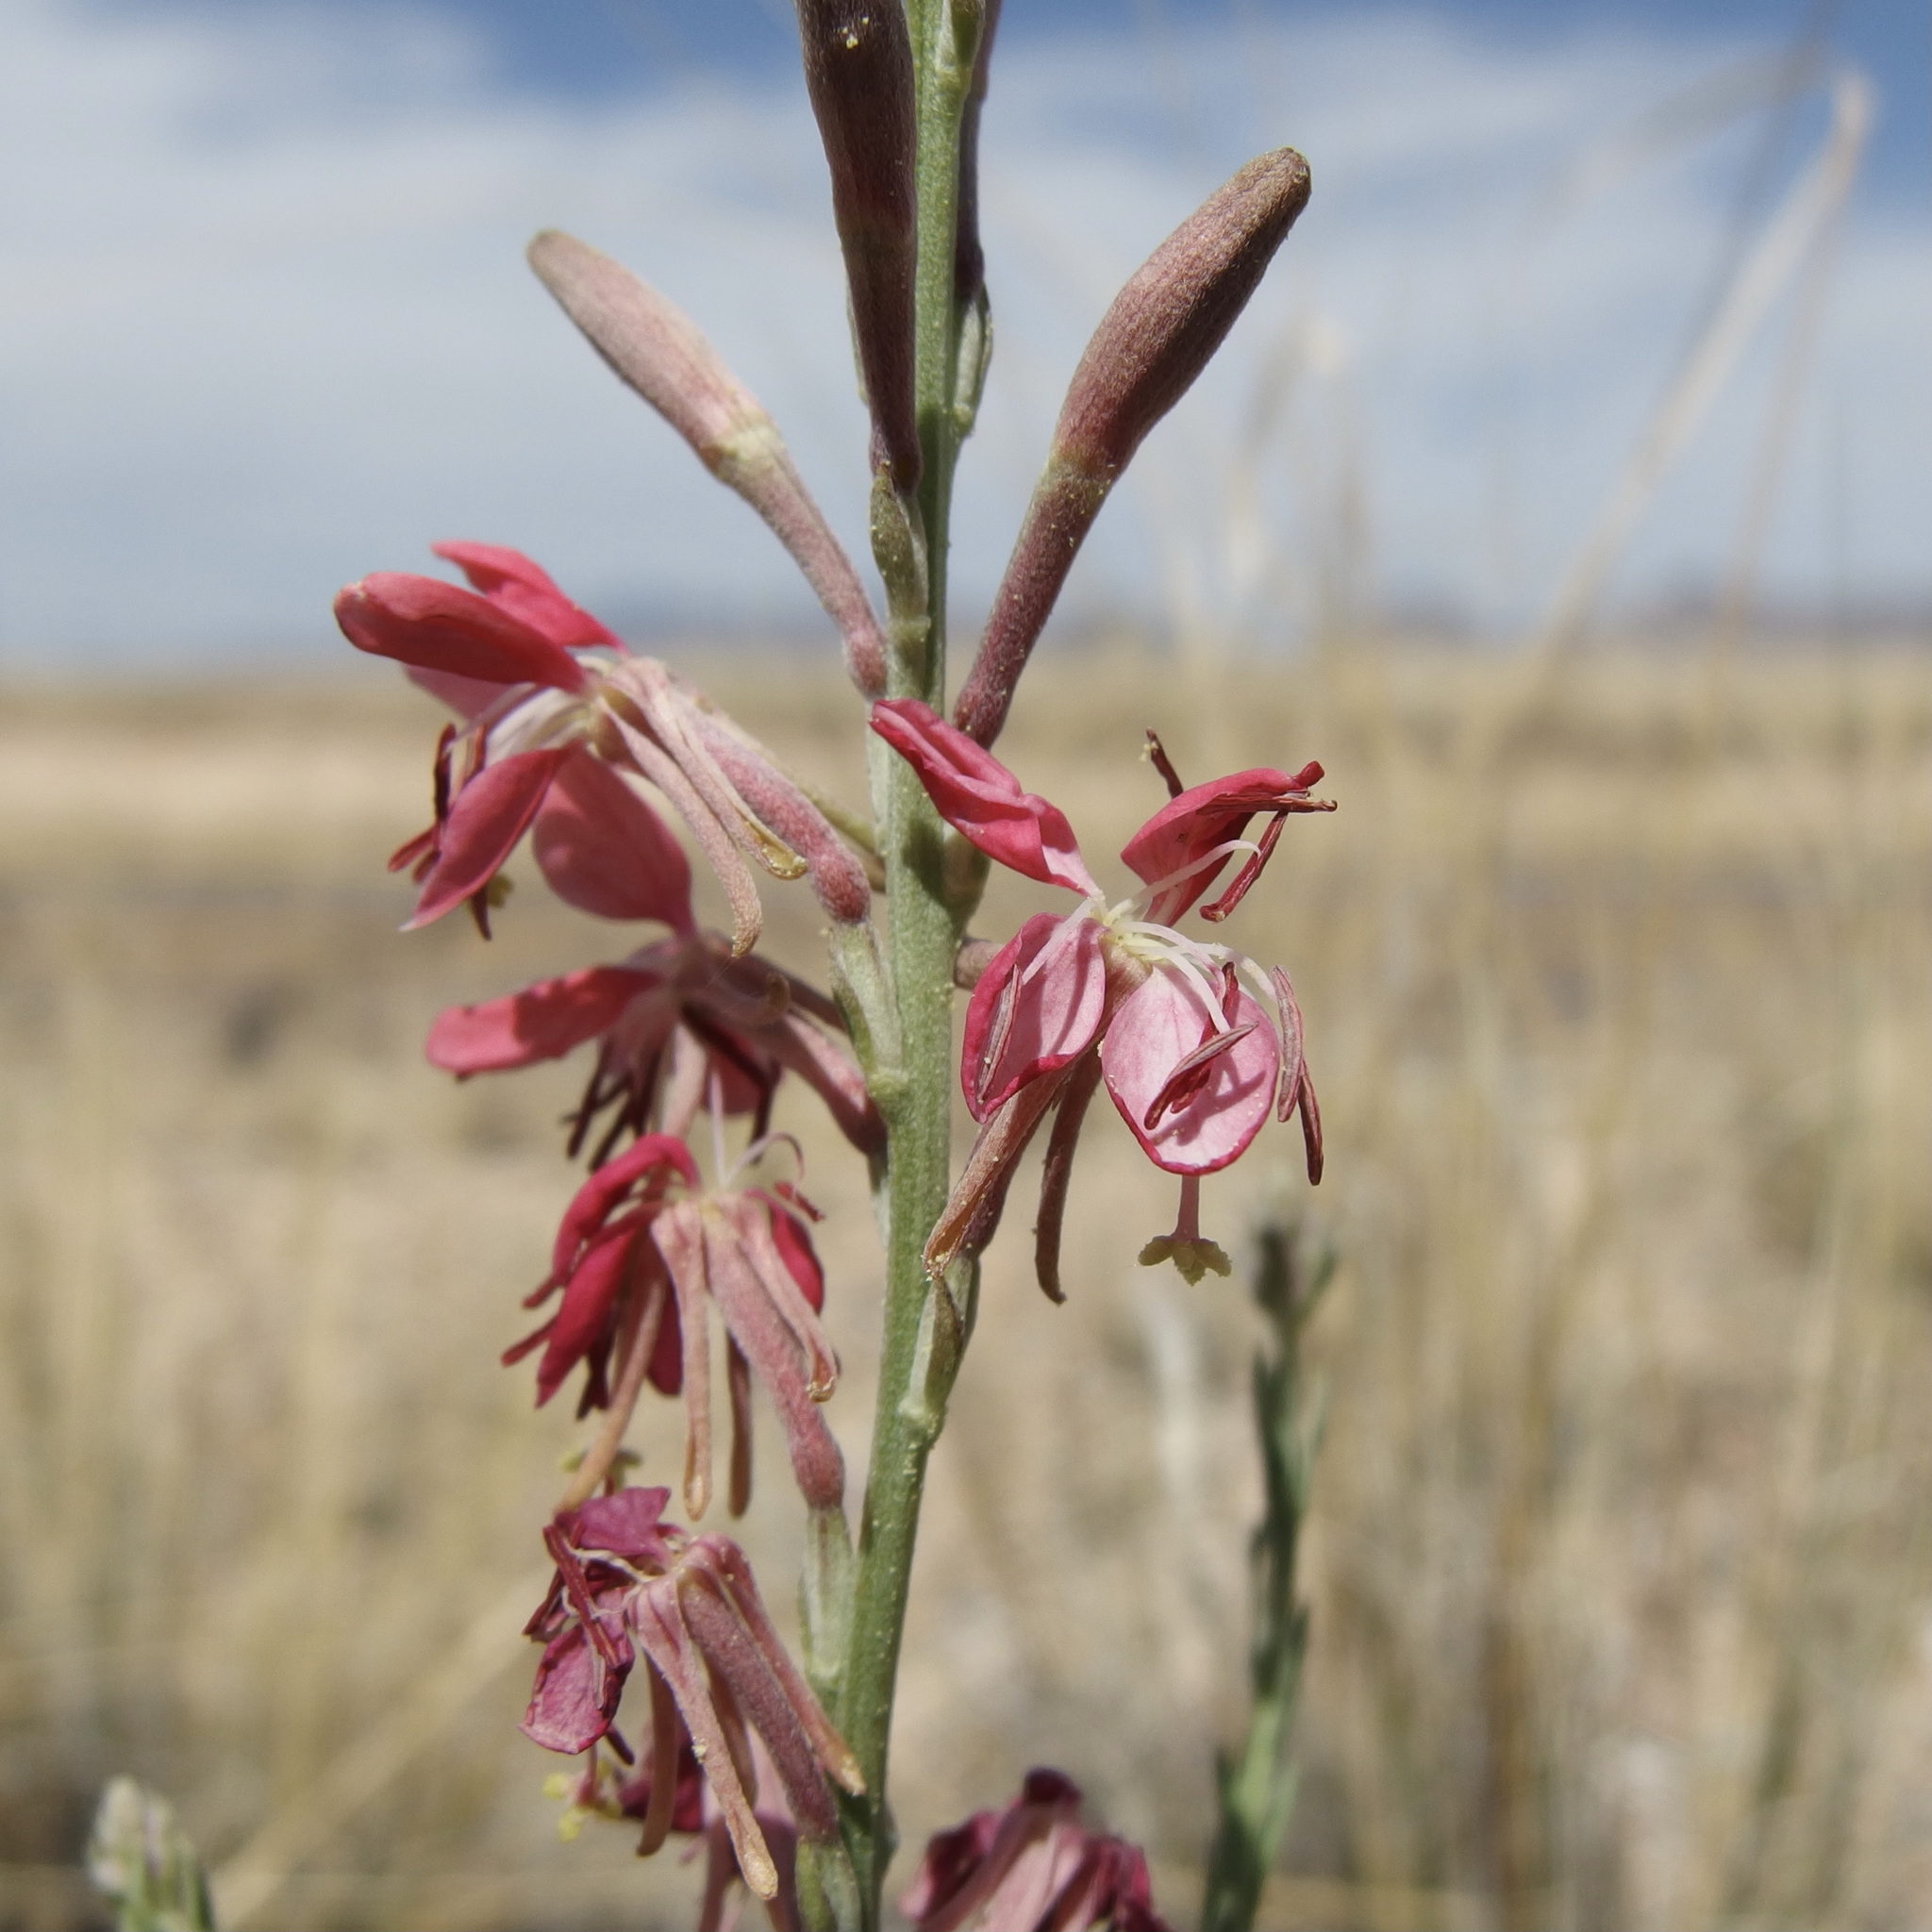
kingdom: Plantae
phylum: Tracheophyta
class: Magnoliopsida
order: Myrtales
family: Onagraceae
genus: Oenothera
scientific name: Oenothera suffrutescens
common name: Scarlet beeblossom
